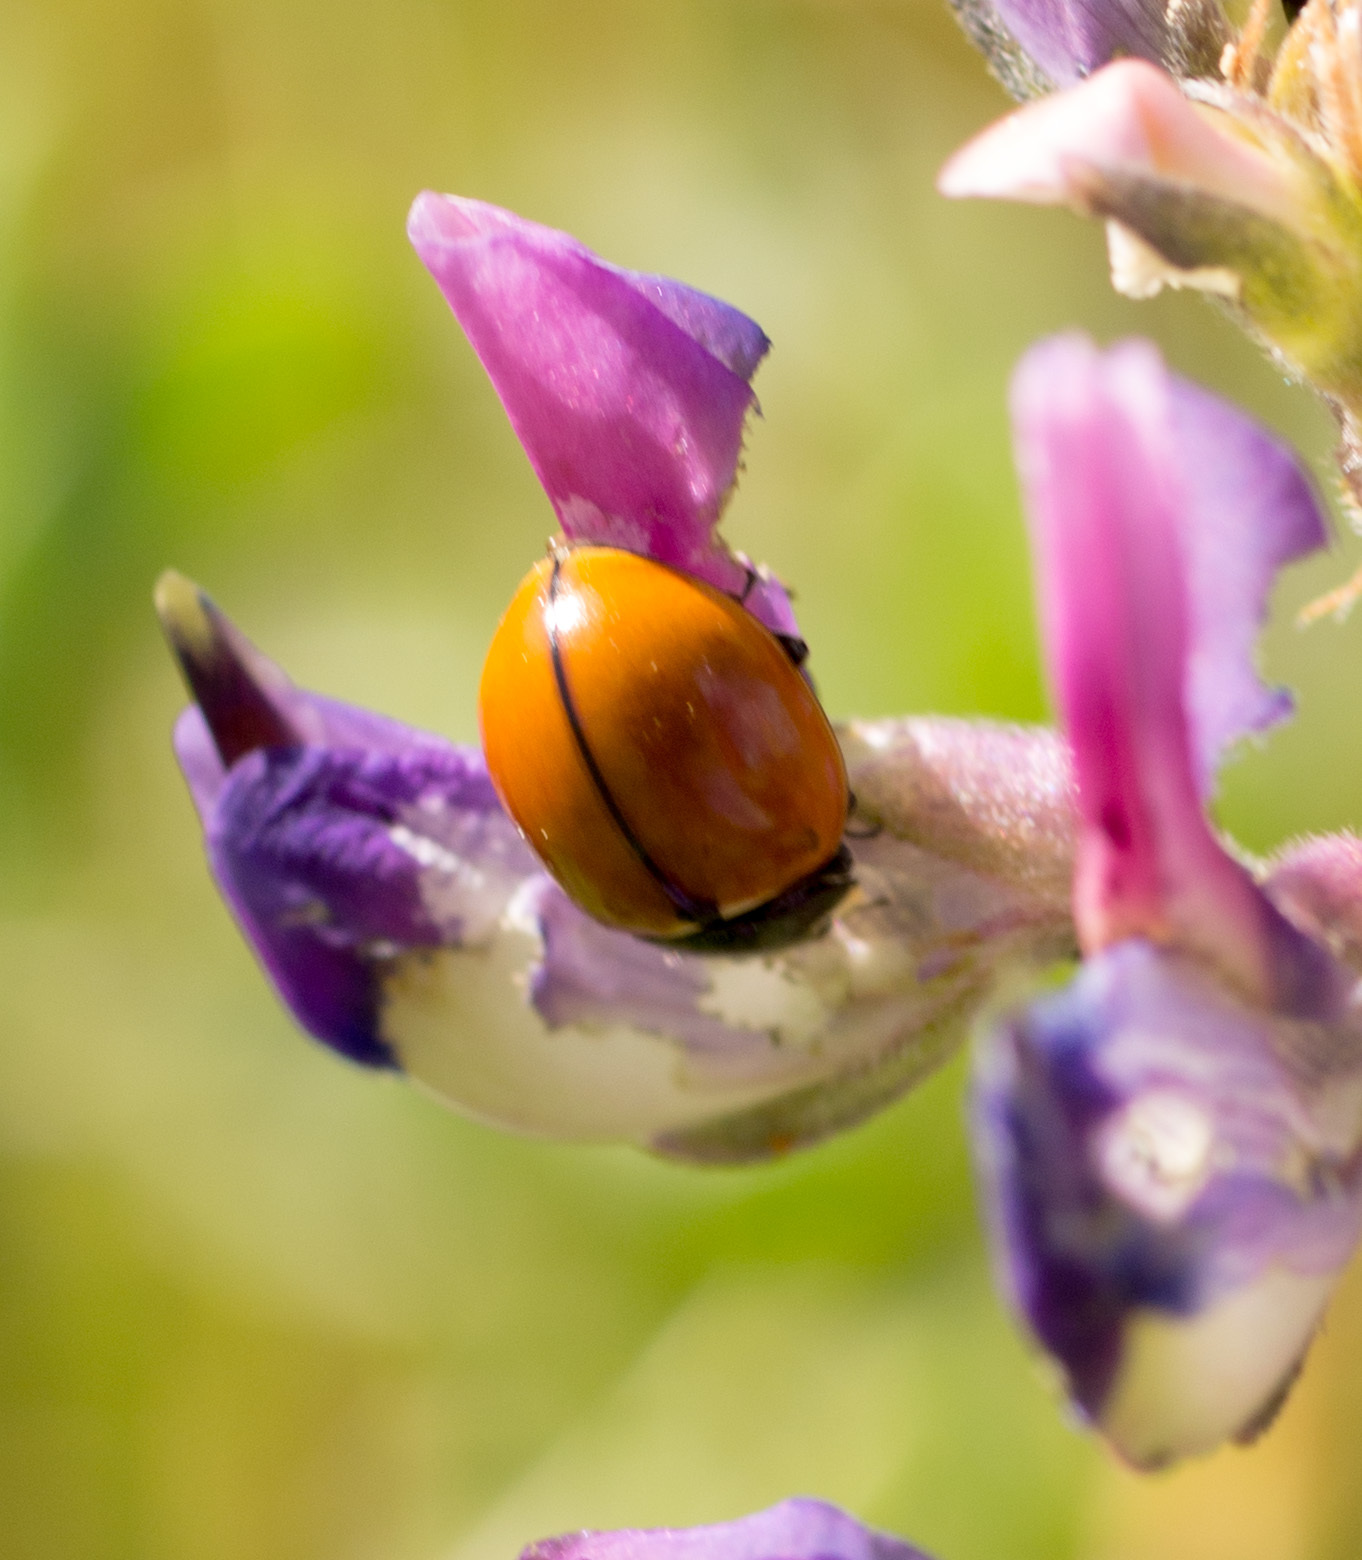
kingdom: Animalia
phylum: Arthropoda
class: Insecta
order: Coleoptera
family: Coccinellidae
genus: Coccinella
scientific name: Coccinella californica
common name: Lady beetle
